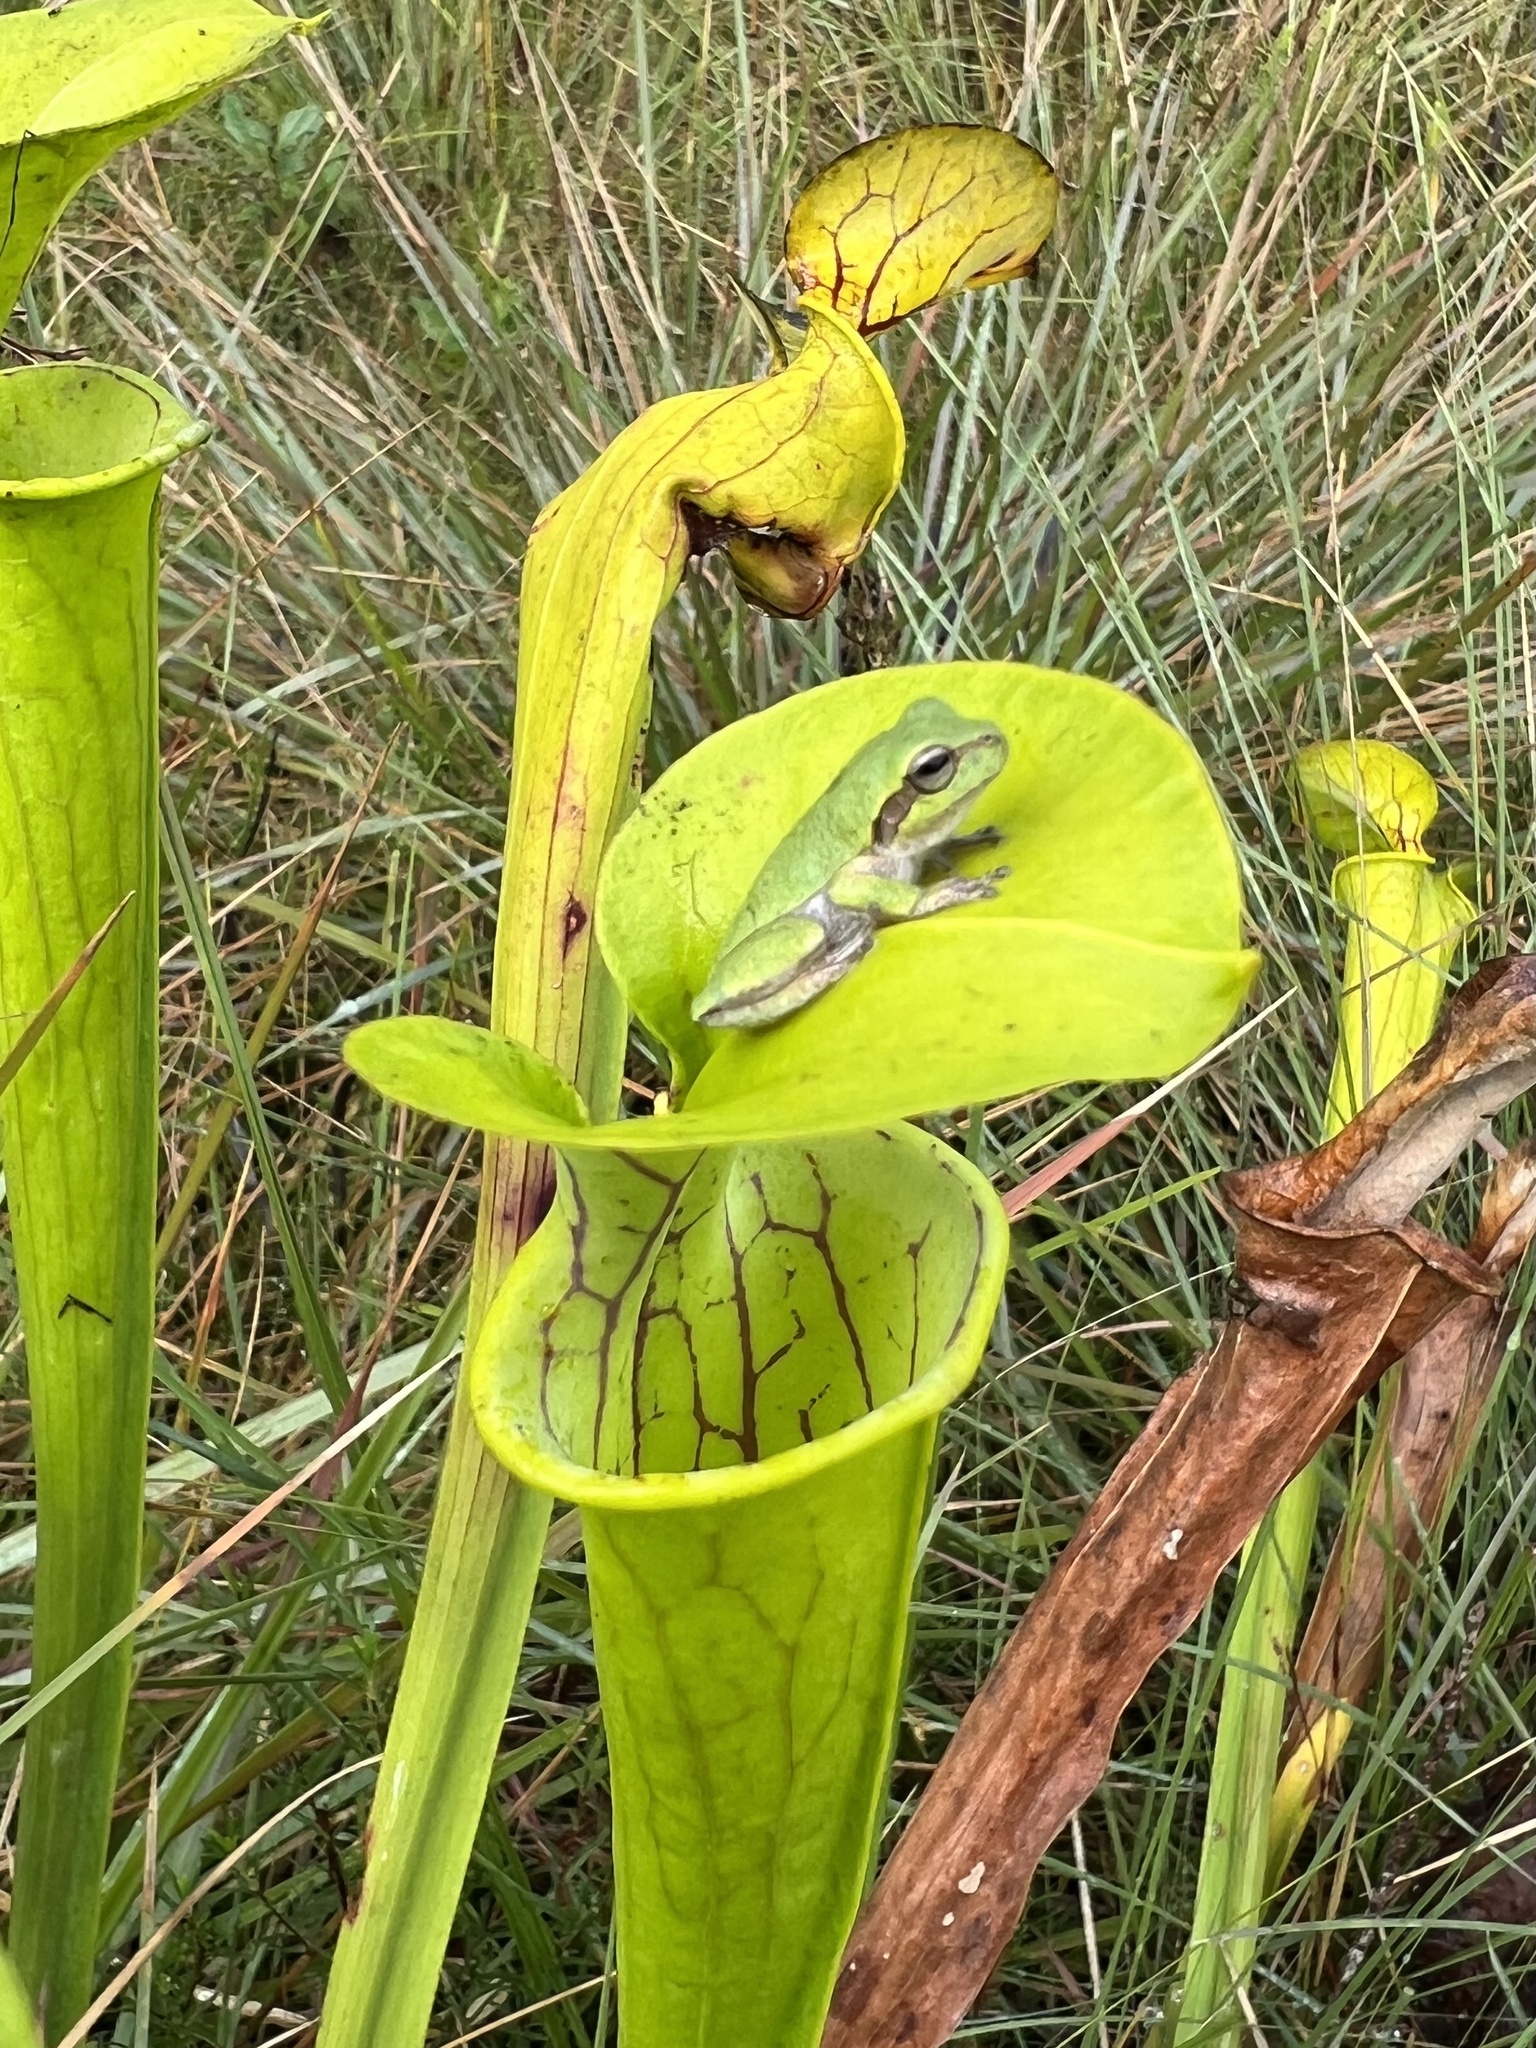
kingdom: Animalia
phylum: Chordata
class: Amphibia
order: Anura
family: Hylidae
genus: Hyla
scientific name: Hyla femoralis
